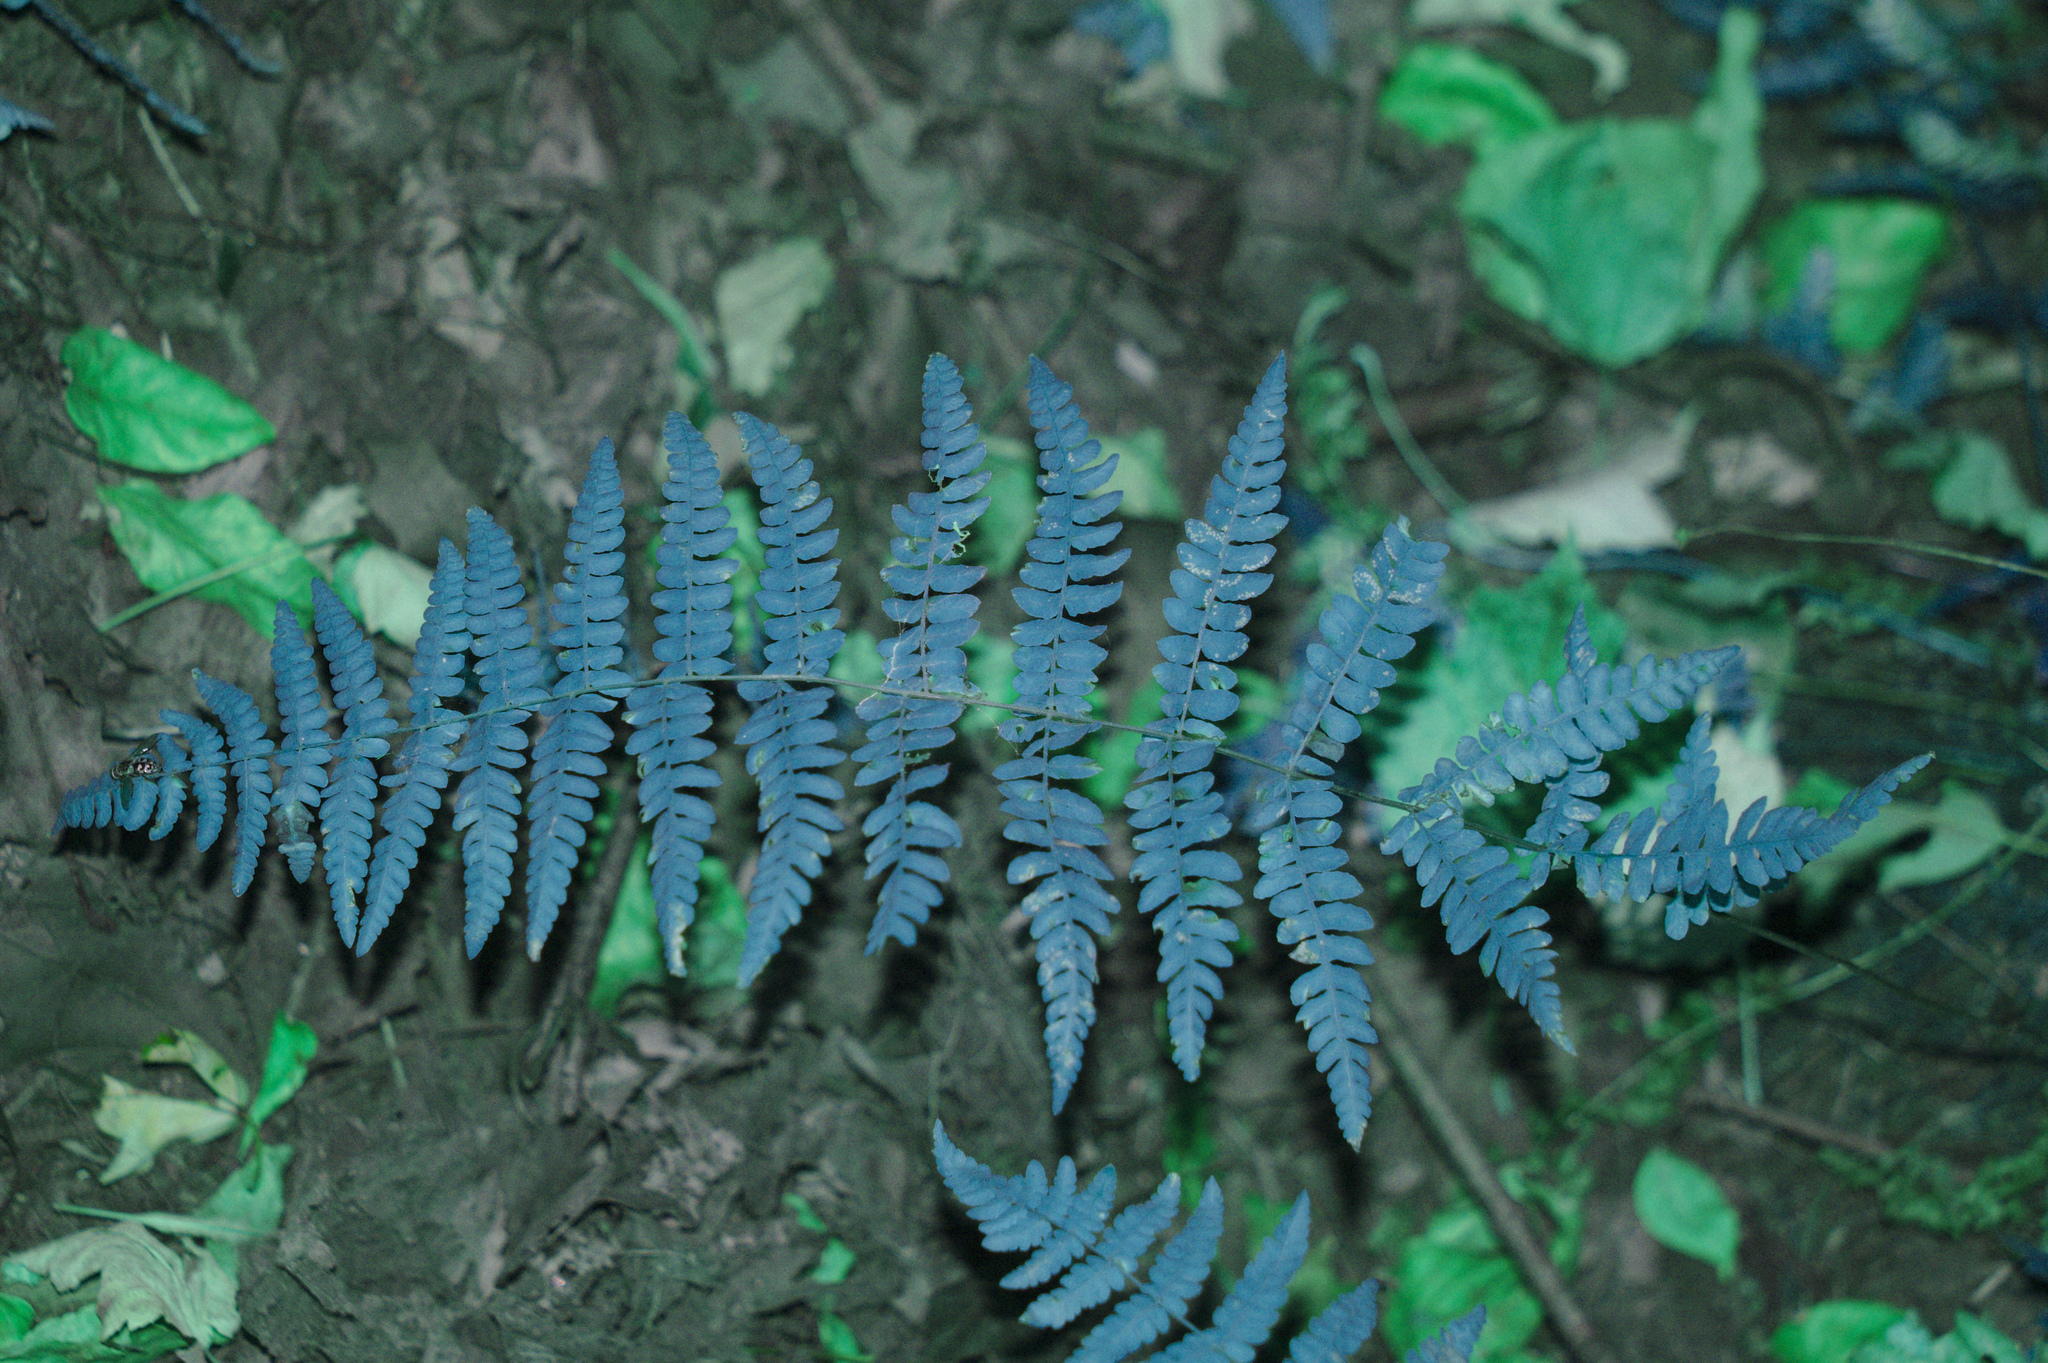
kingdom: Plantae
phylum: Tracheophyta
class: Polypodiopsida
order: Polypodiales
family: Thelypteridaceae
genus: Thelypteris
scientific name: Thelypteris palustris
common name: Marsh fern
